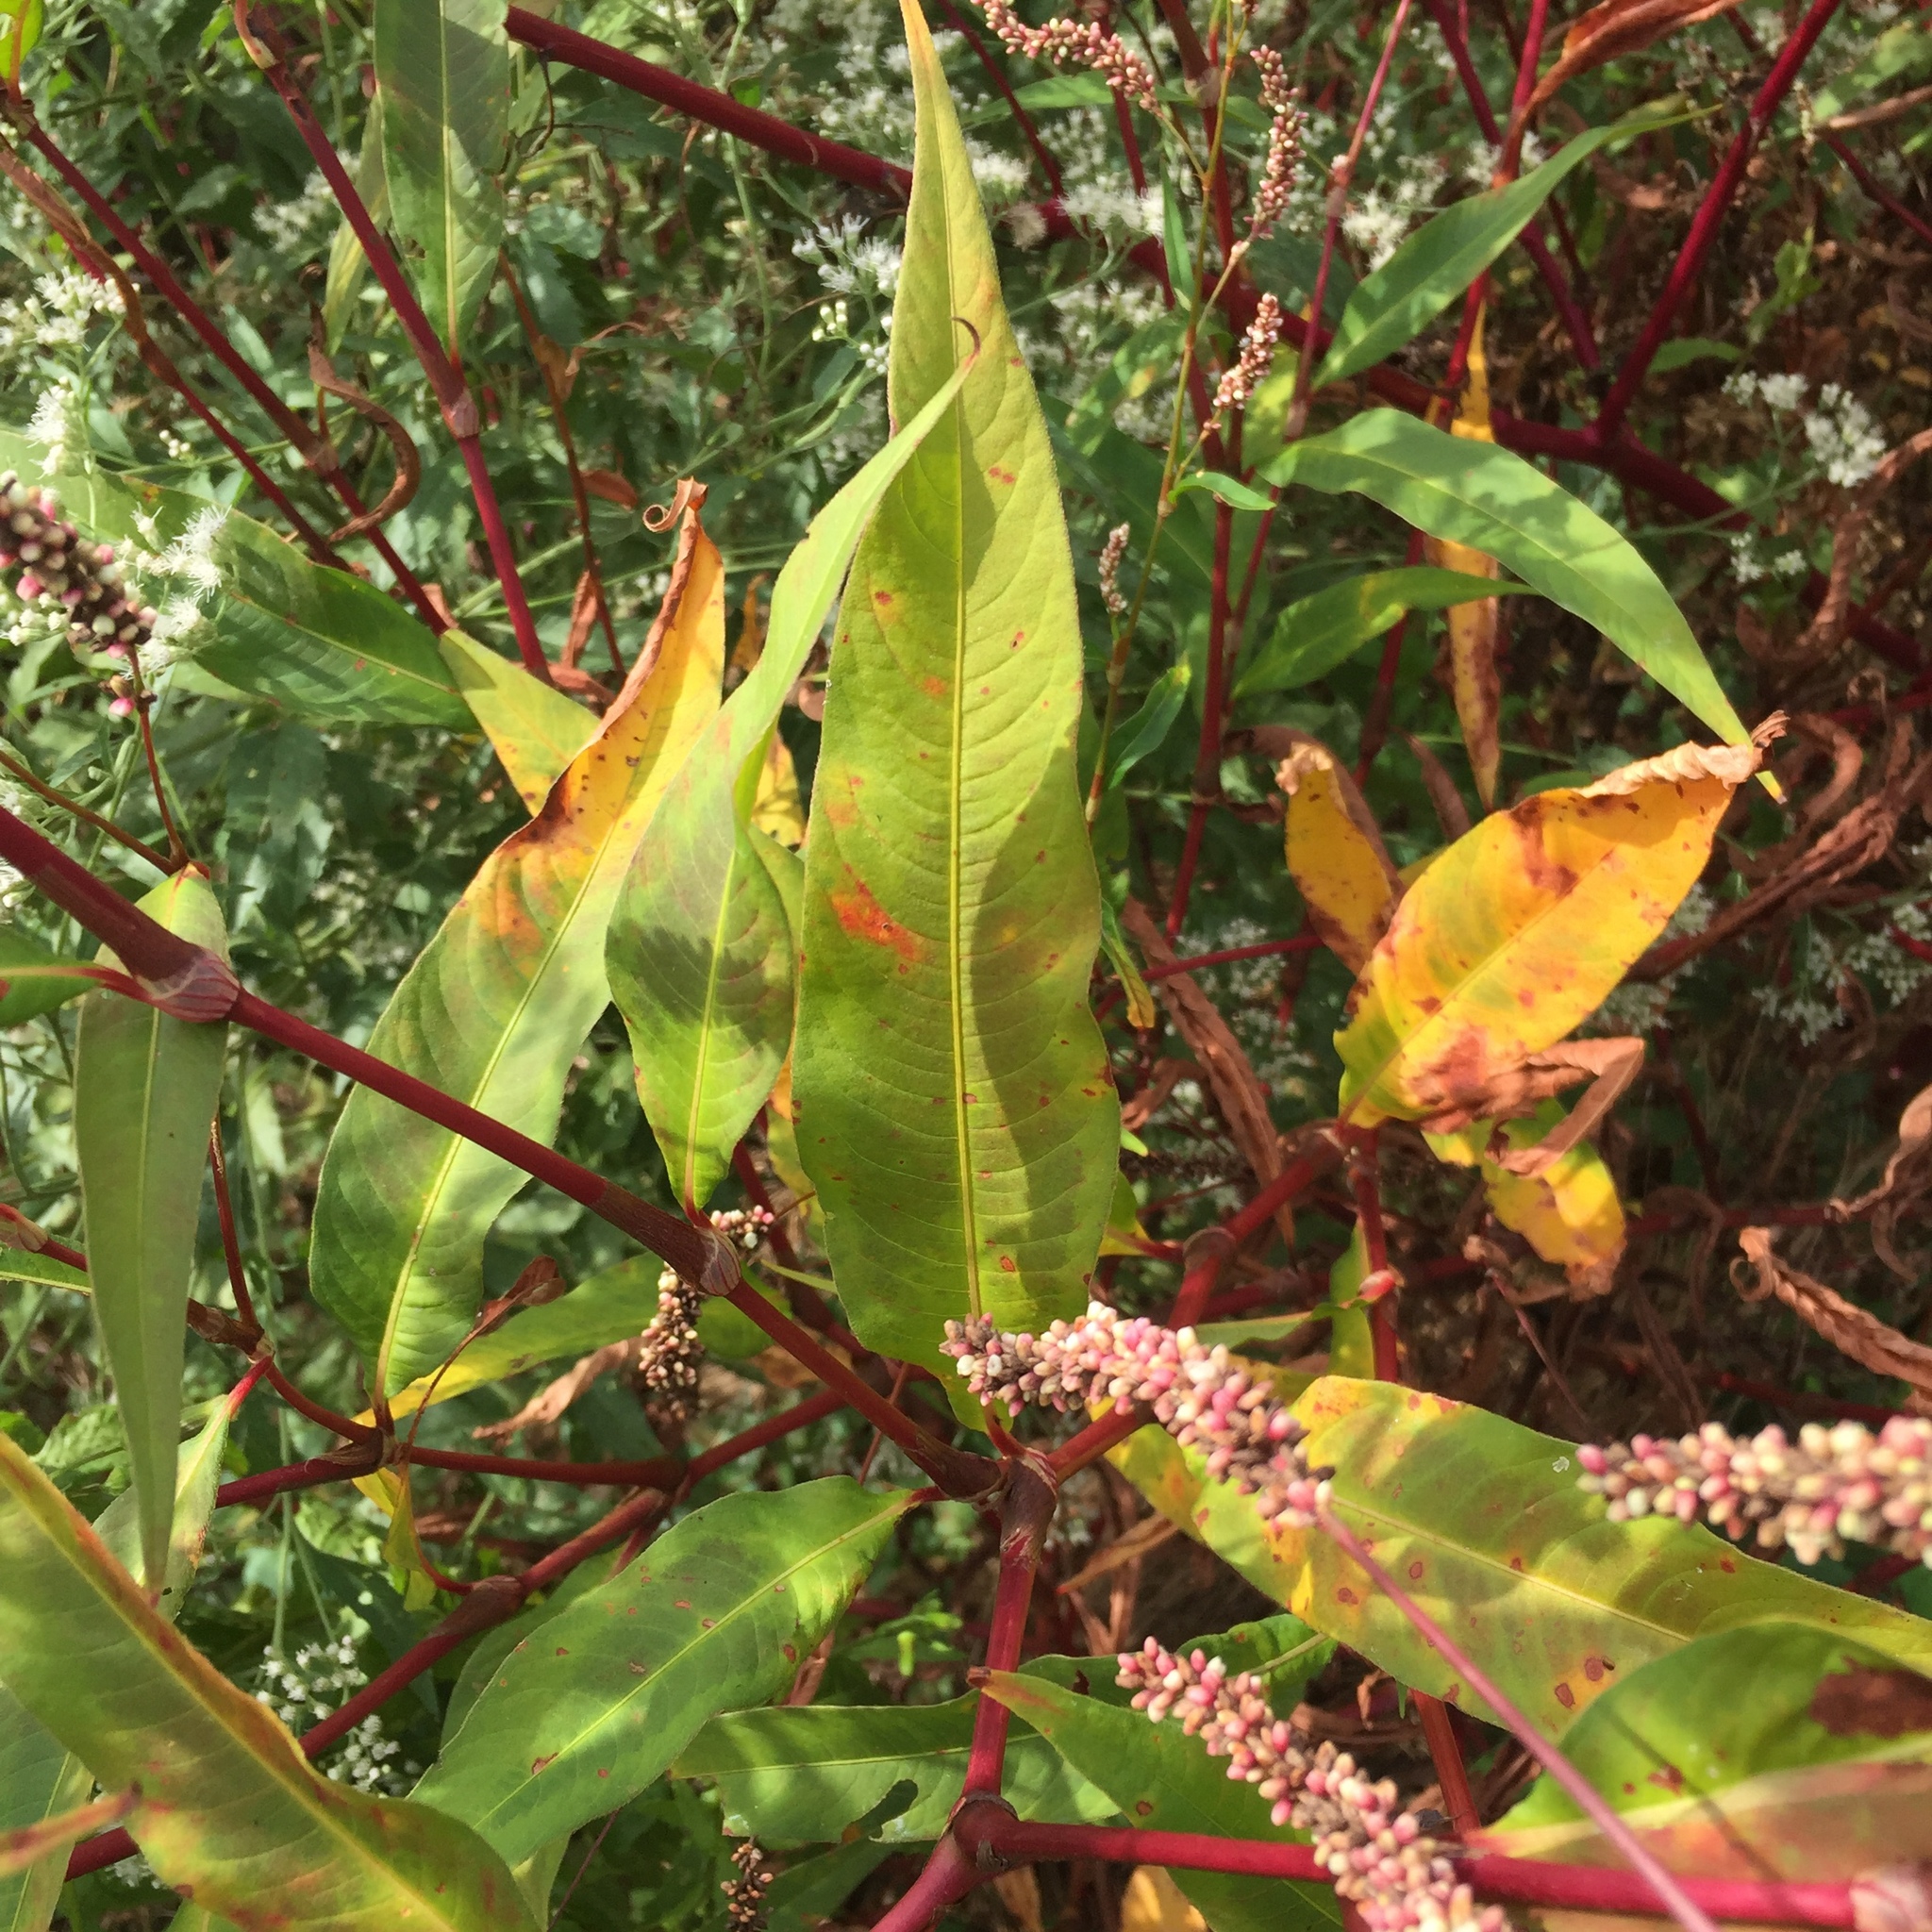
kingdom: Plantae
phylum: Tracheophyta
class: Magnoliopsida
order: Caryophyllales
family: Polygonaceae
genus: Persicaria
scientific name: Persicaria extremiorientalis
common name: Far-eastern smartweed
